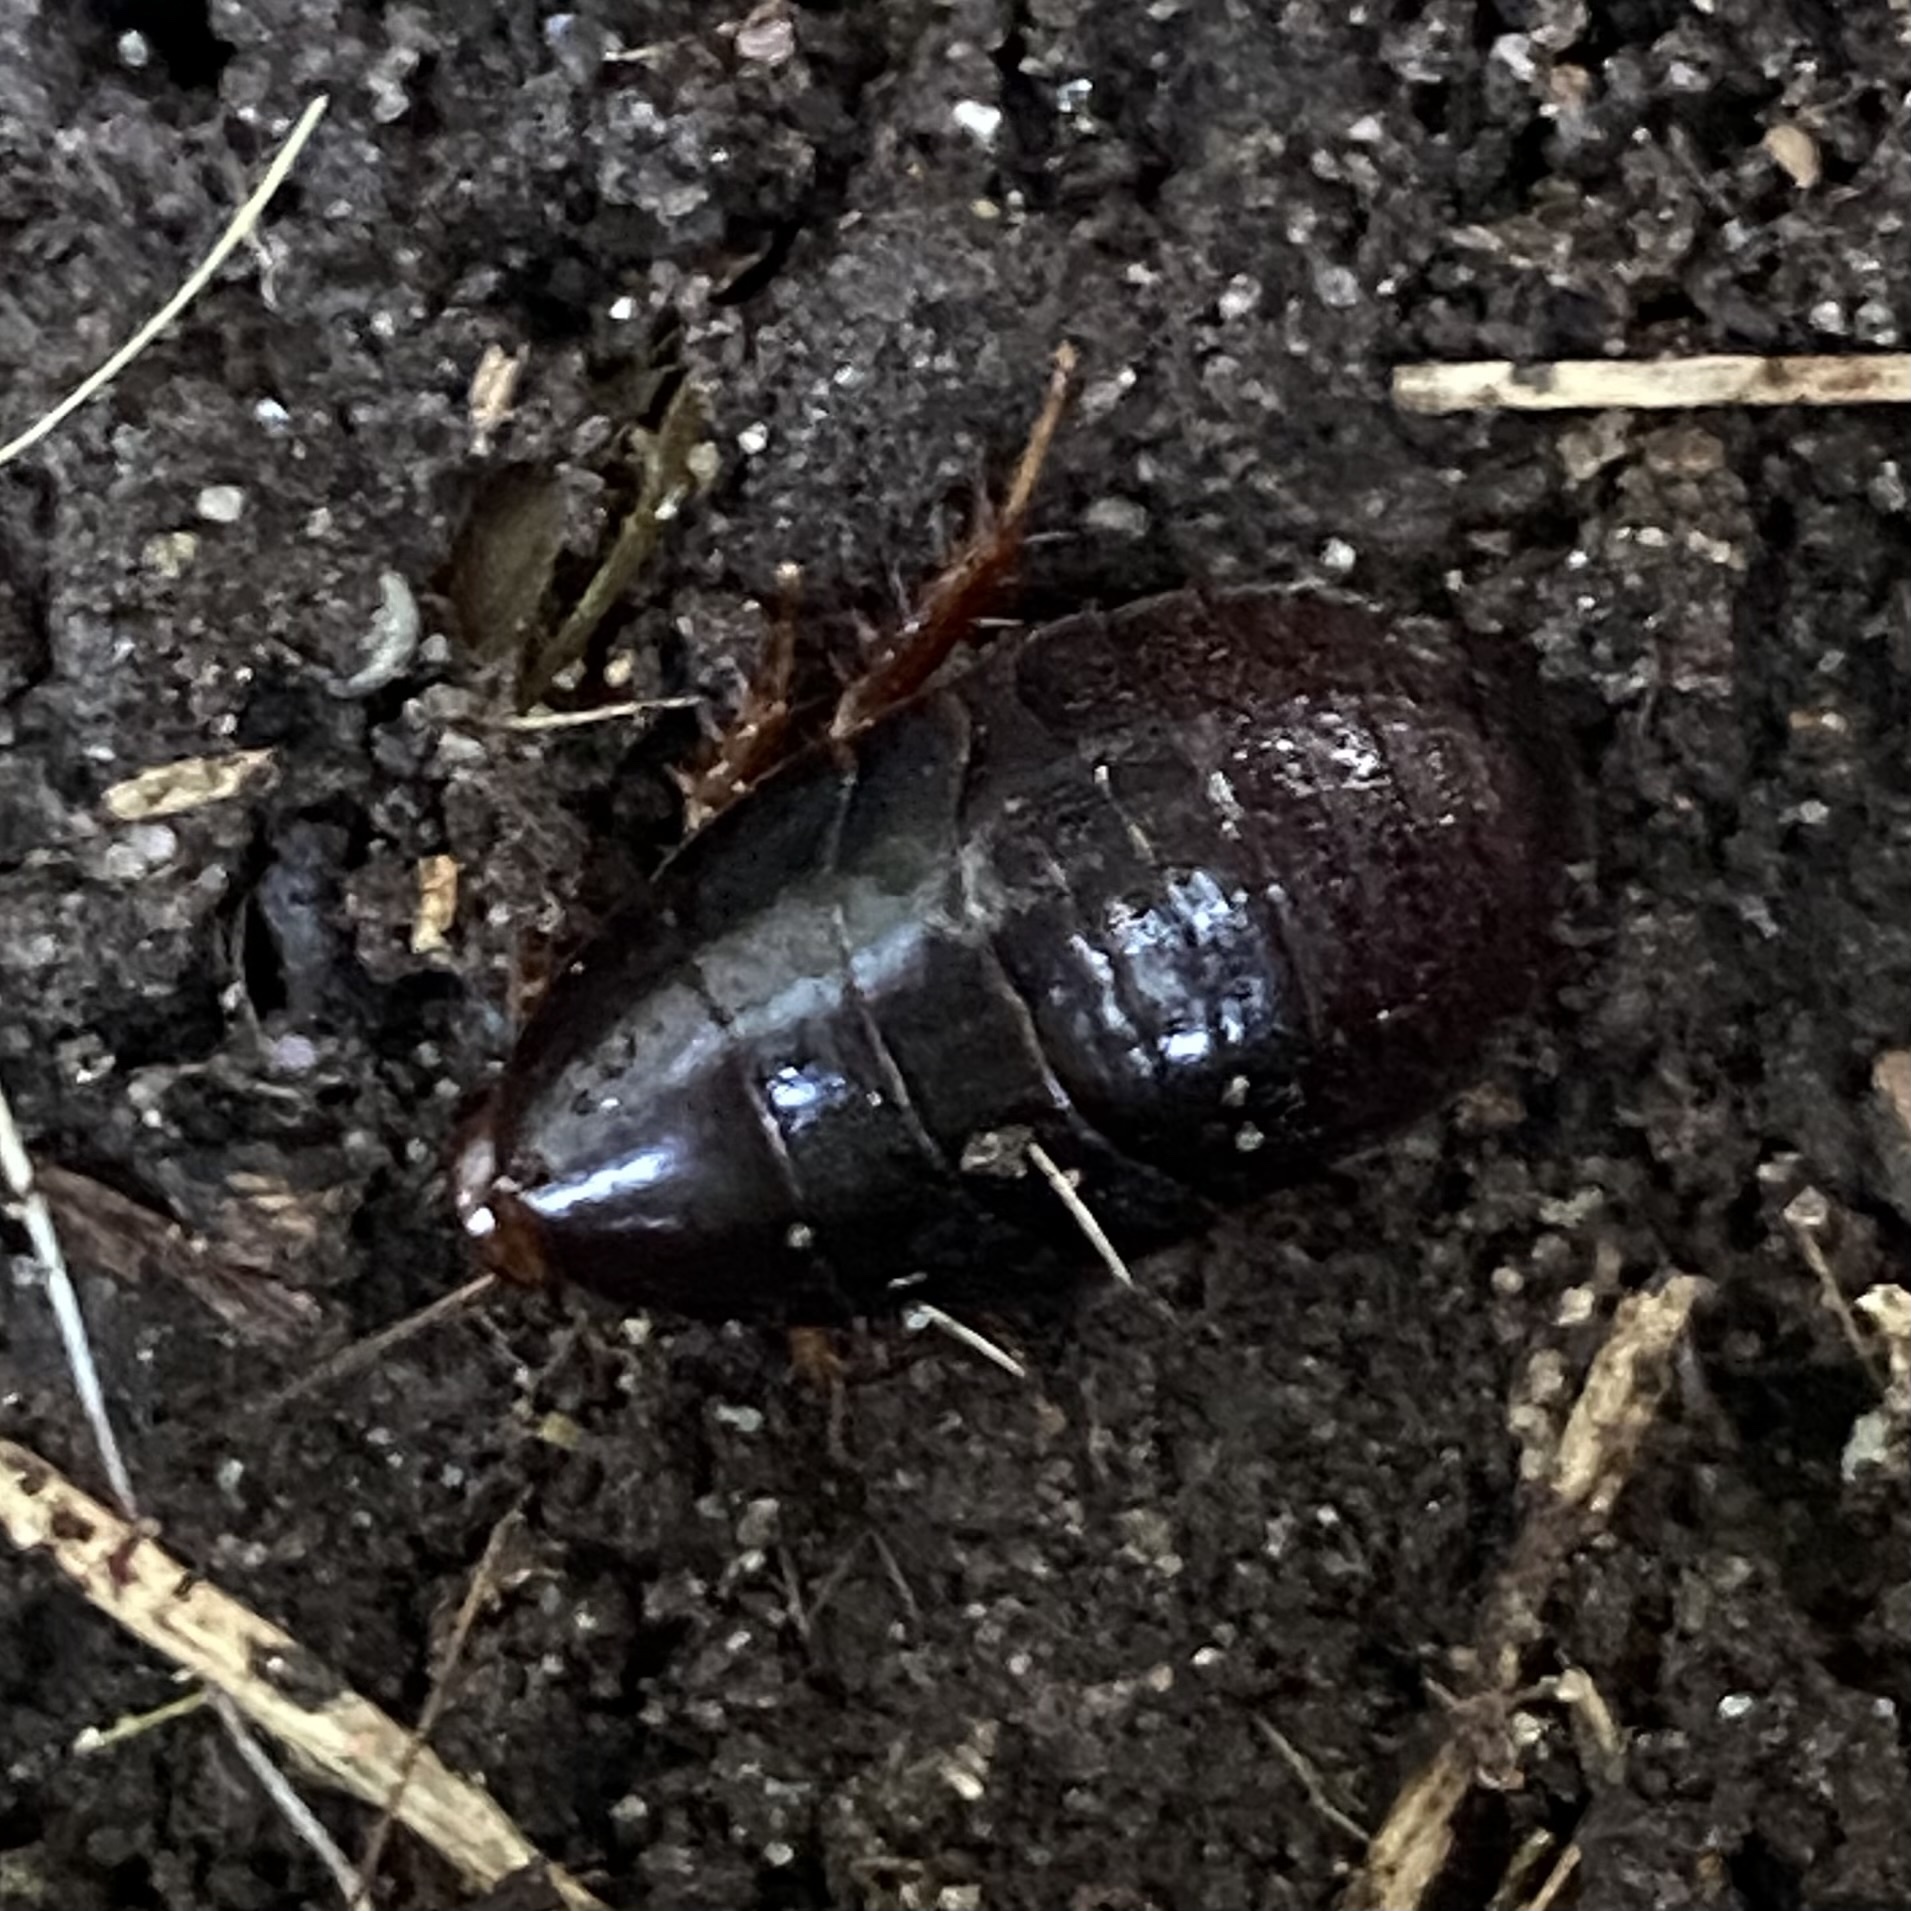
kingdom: Animalia
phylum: Arthropoda
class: Insecta
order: Blattodea
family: Blaberidae
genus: Pycnoscelus
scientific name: Pycnoscelus surinamensis
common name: Surinam cockroach
